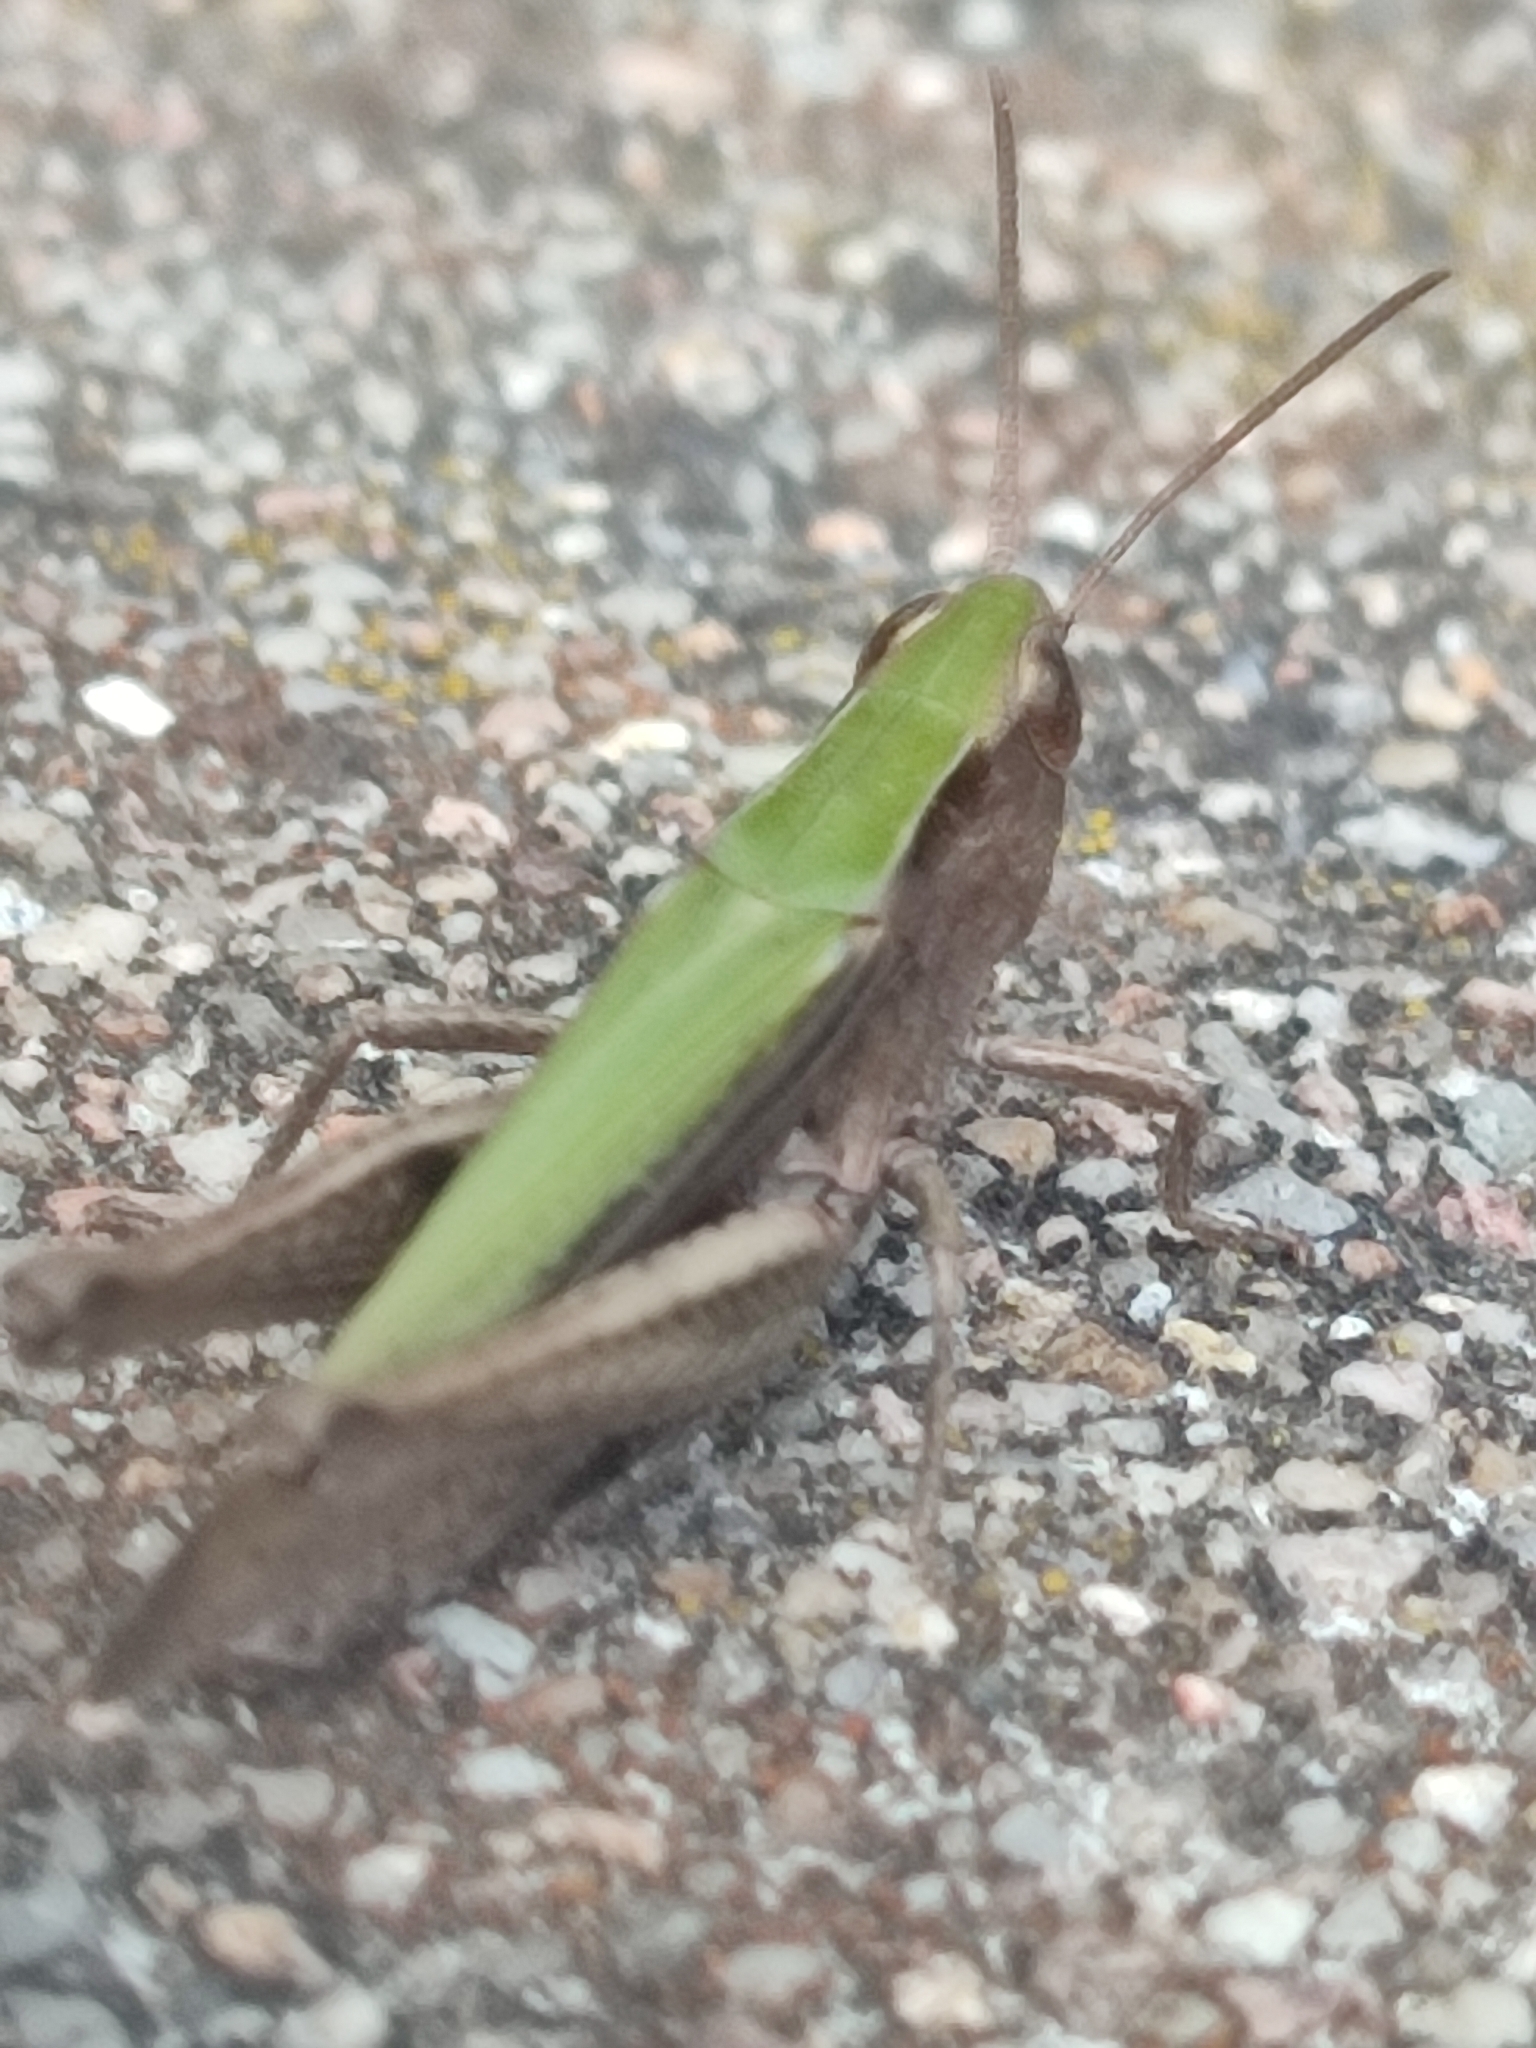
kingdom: Animalia
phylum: Arthropoda
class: Insecta
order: Orthoptera
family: Acrididae
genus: Chorthippus
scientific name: Chorthippus dorsatus
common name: Steppe grasshopper
